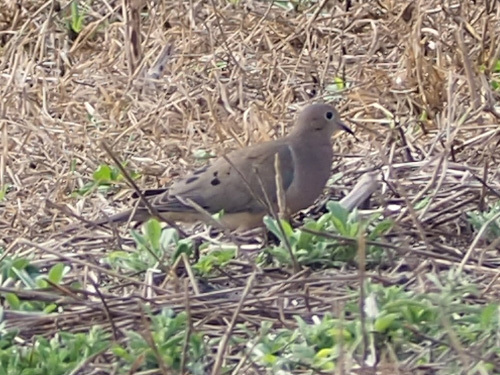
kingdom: Animalia
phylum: Chordata
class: Aves
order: Columbiformes
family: Columbidae
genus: Zenaida
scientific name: Zenaida macroura
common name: Mourning dove
